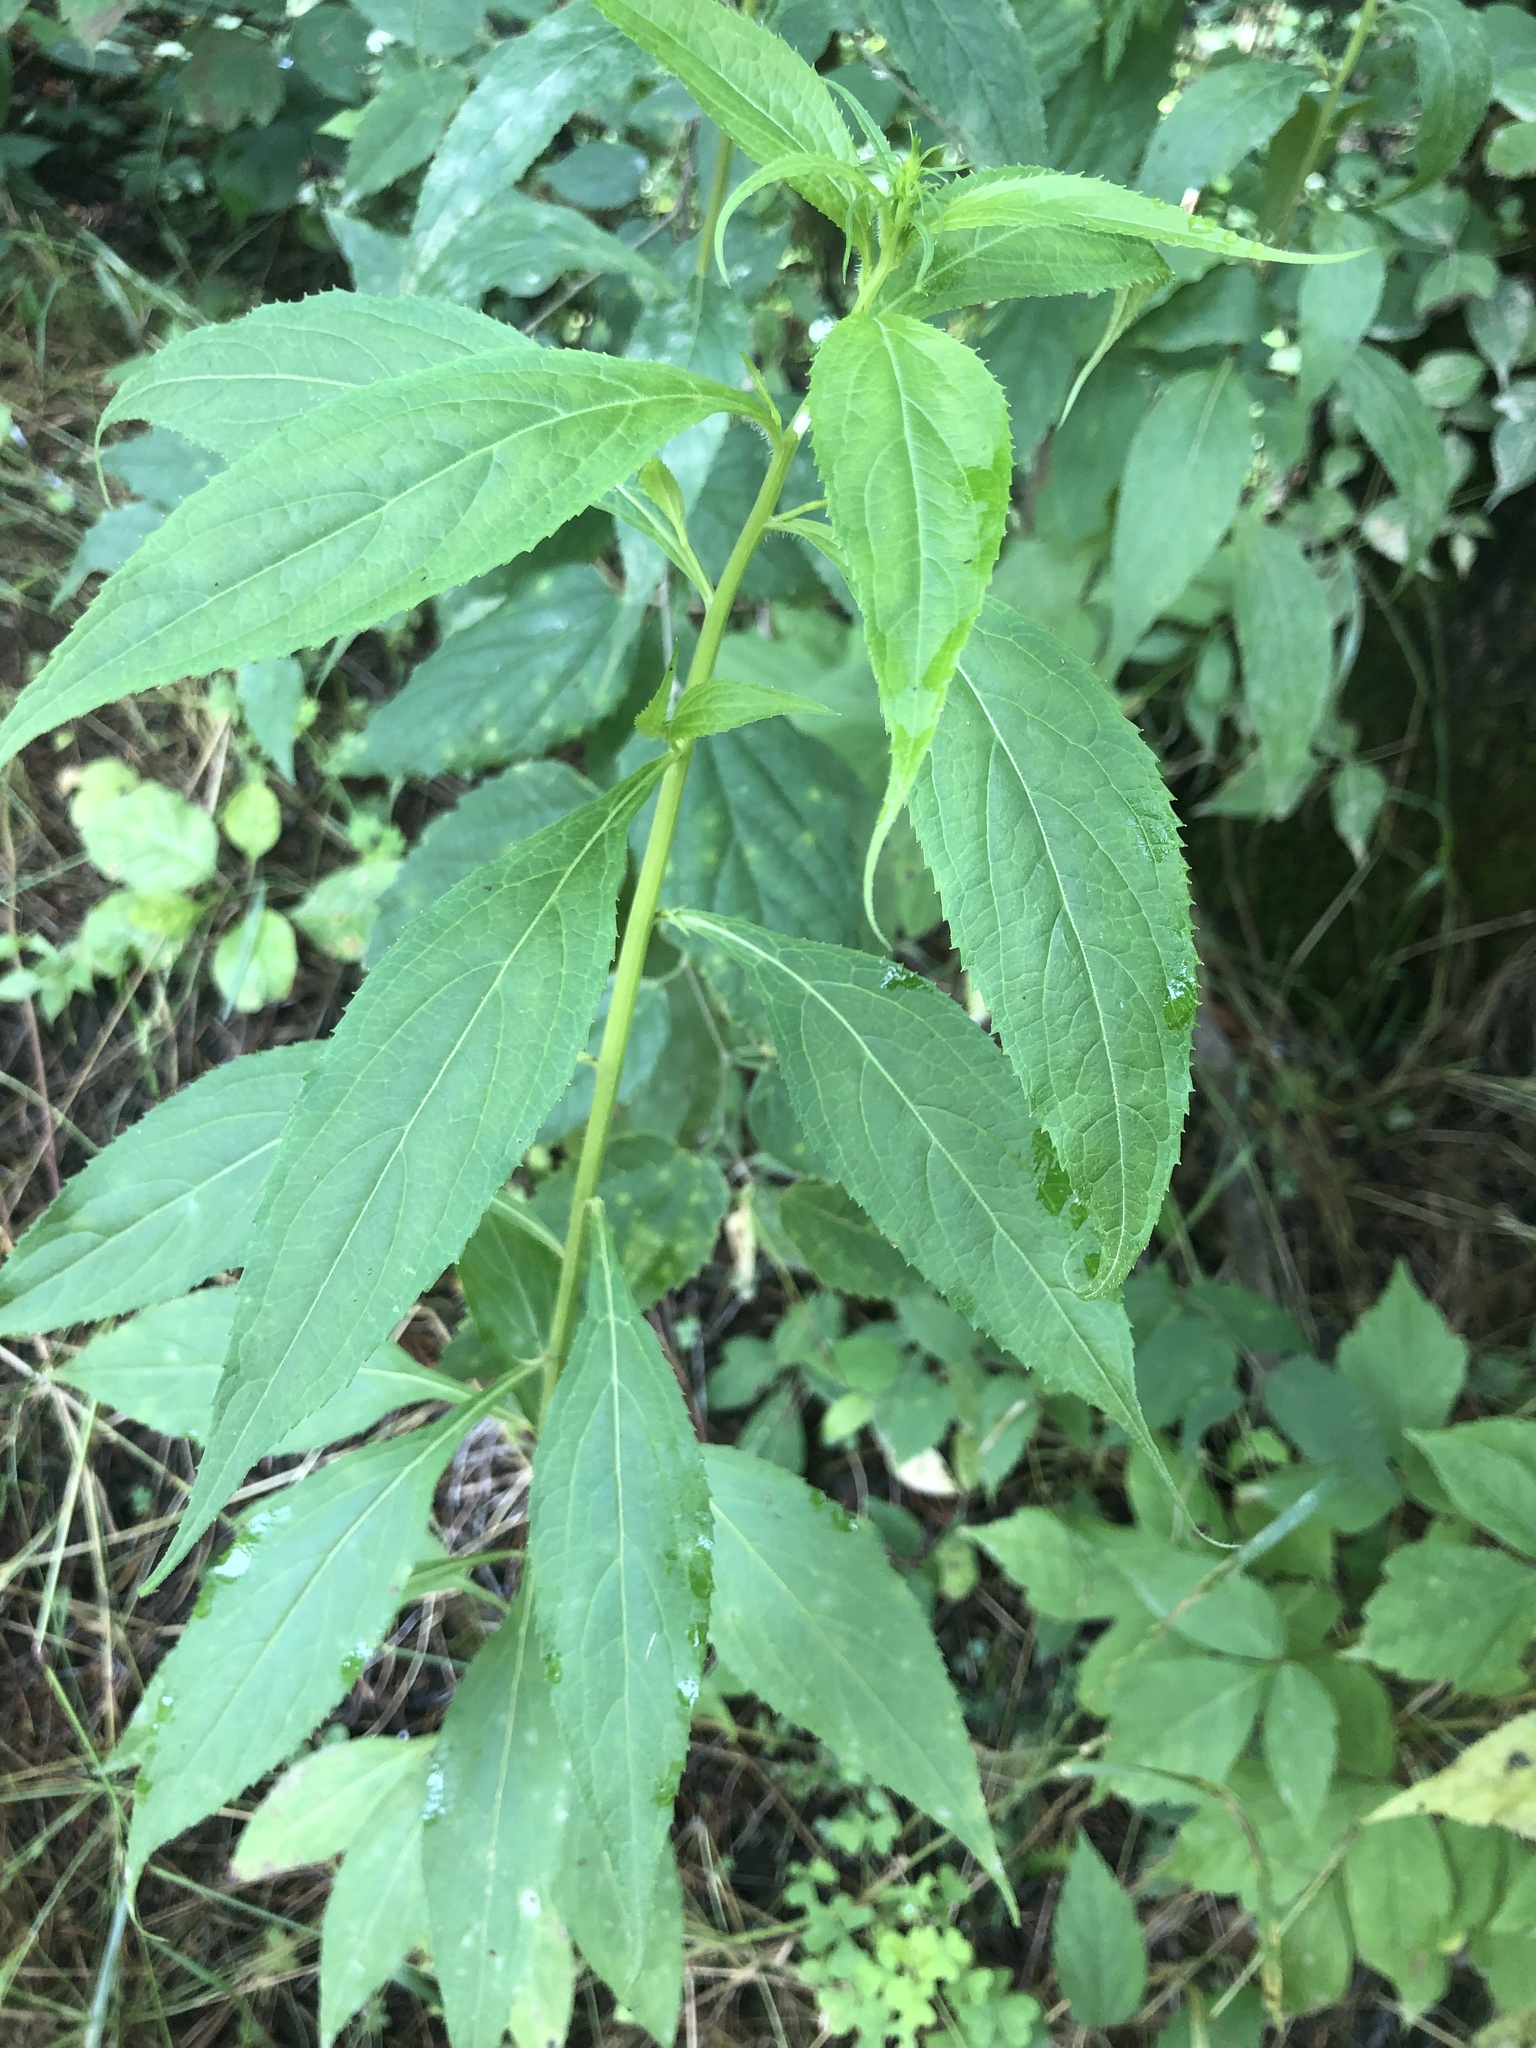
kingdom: Plantae
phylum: Tracheophyta
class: Magnoliopsida
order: Asterales
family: Campanulaceae
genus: Campanulastrum
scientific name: Campanulastrum americanum
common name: American bellflower
